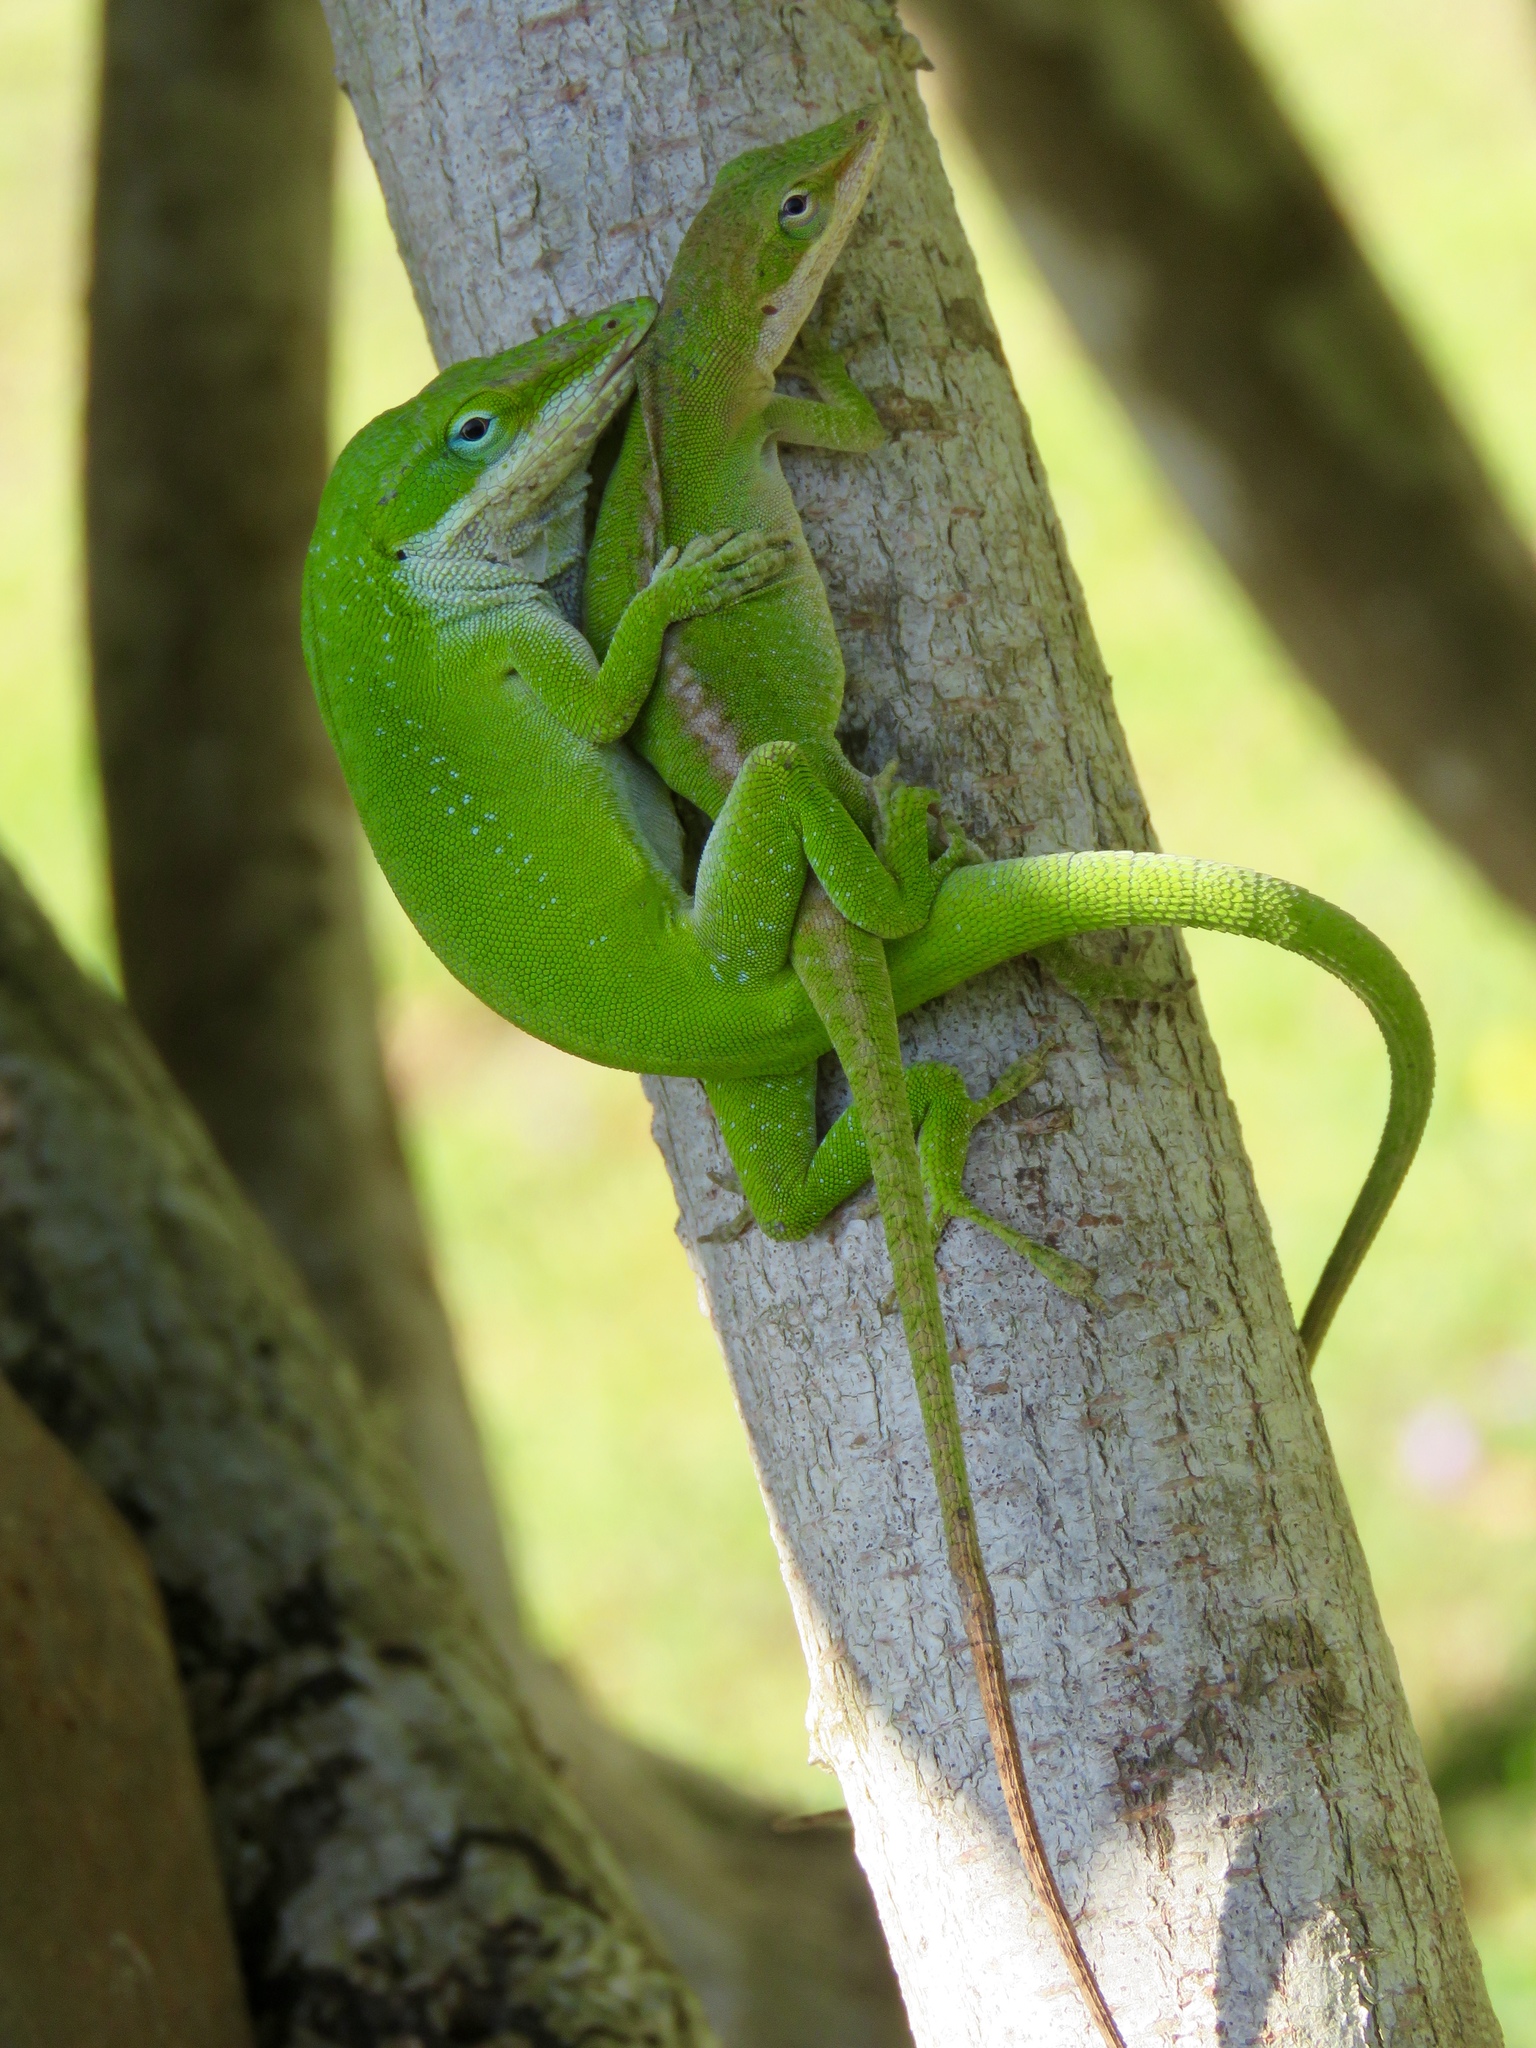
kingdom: Animalia
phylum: Chordata
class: Squamata
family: Dactyloidae
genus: Anolis
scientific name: Anolis carolinensis
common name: Green anole
